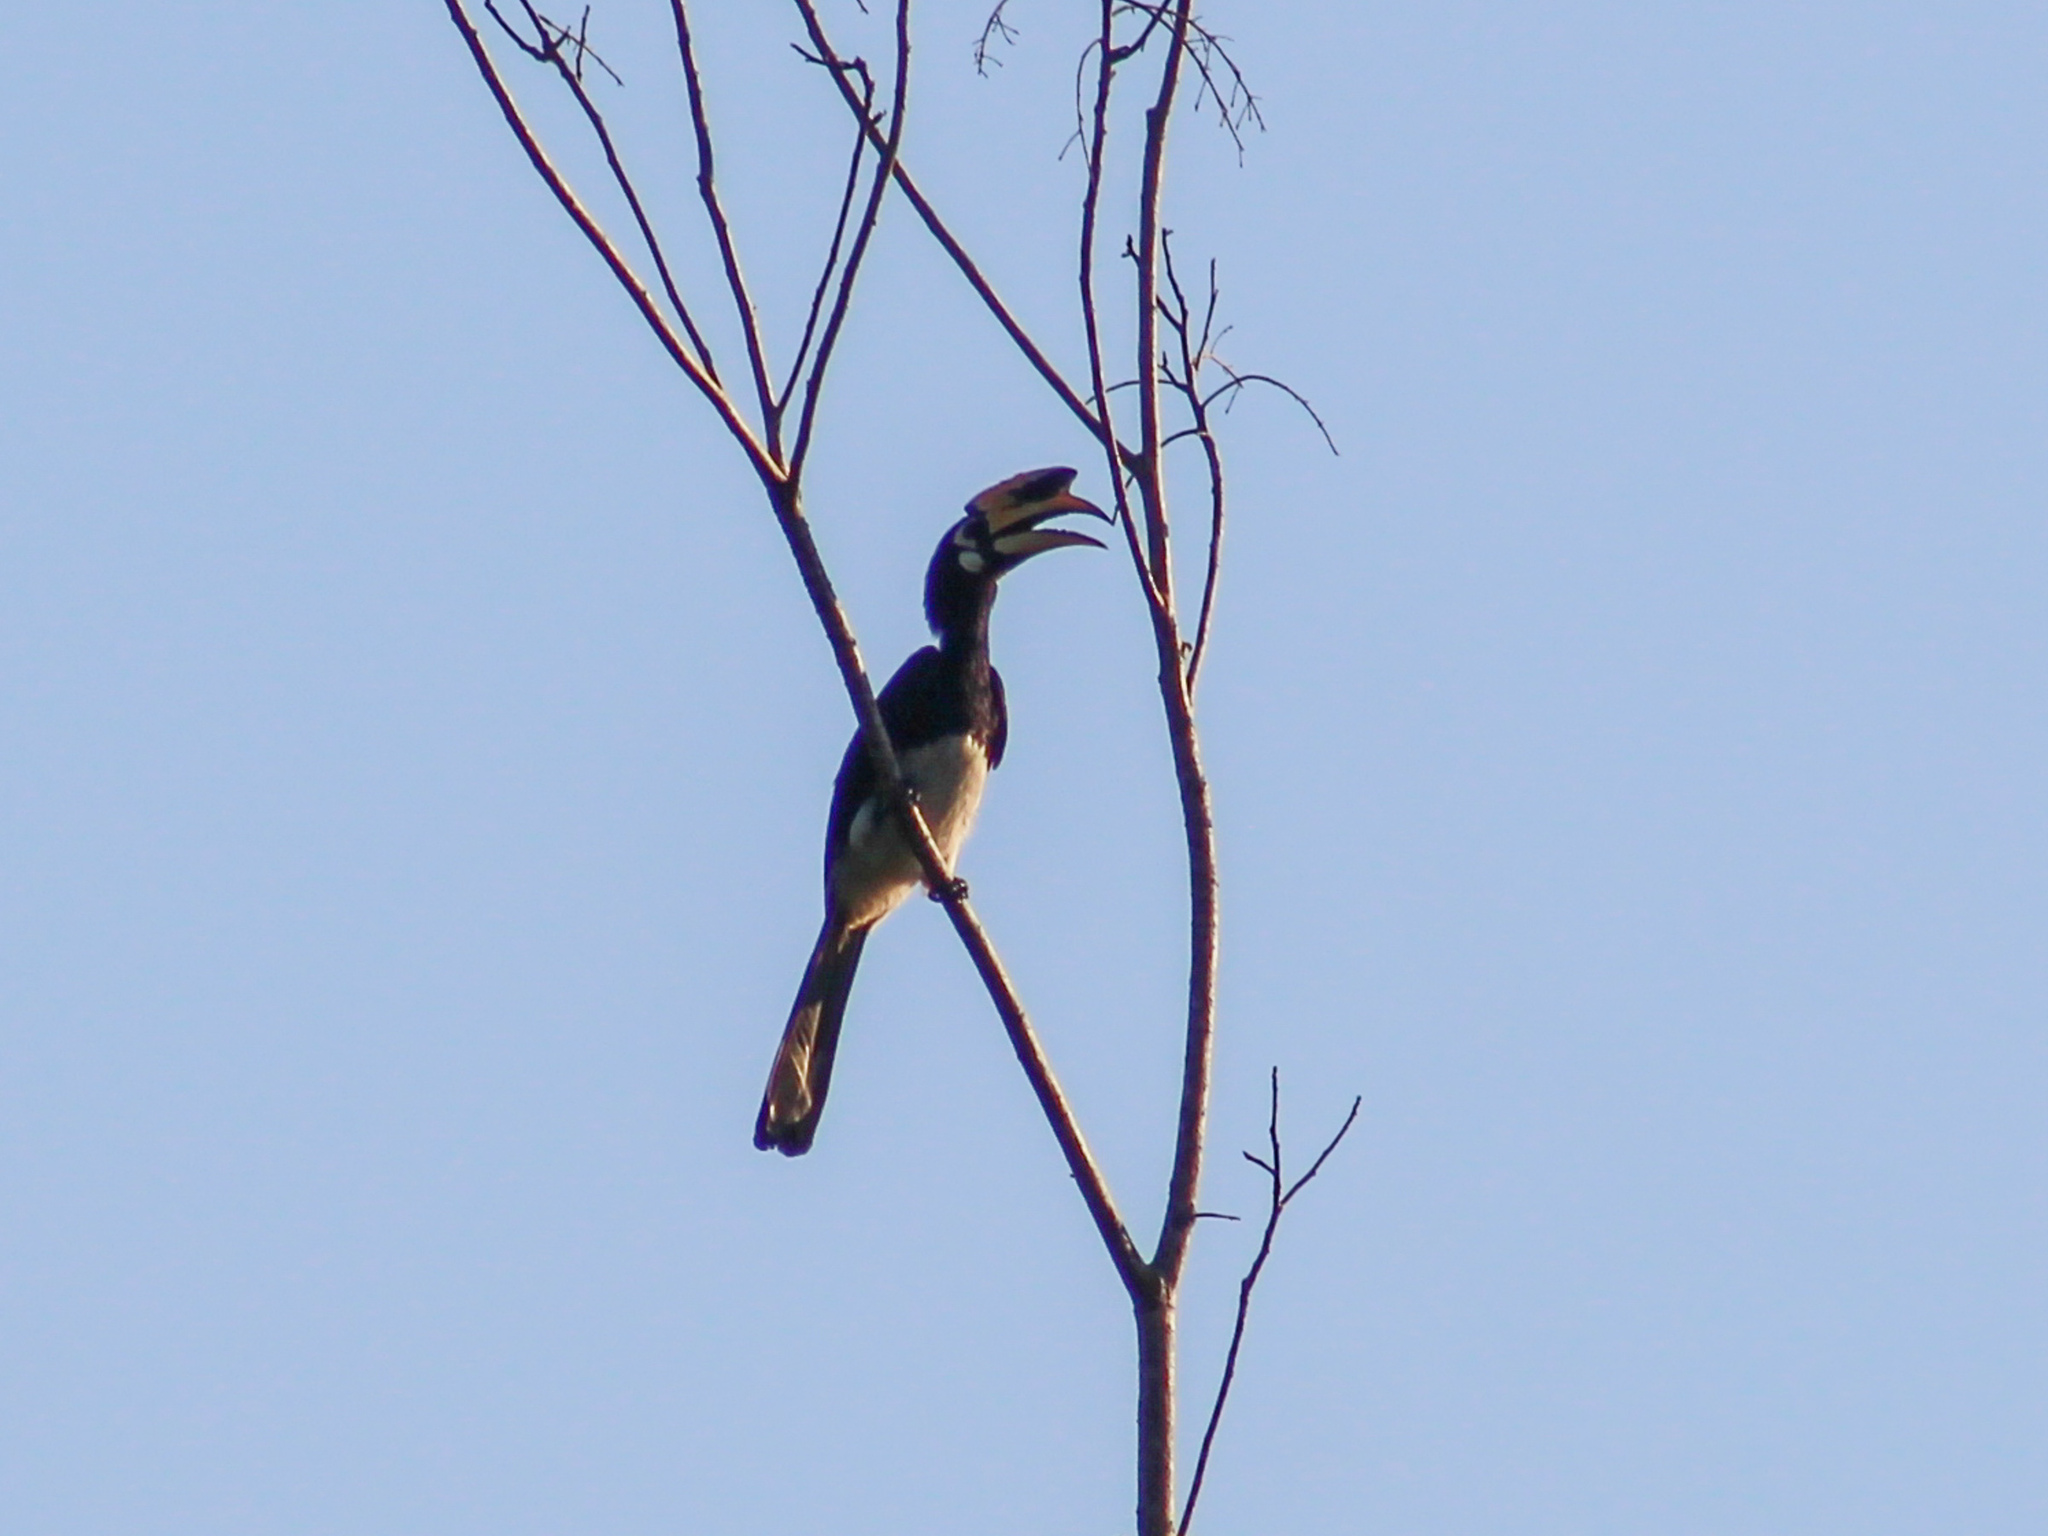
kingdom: Animalia
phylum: Chordata
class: Aves
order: Bucerotiformes
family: Bucerotidae
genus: Anthracoceros
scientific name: Anthracoceros albirostris
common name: Oriental pied-hornbill
